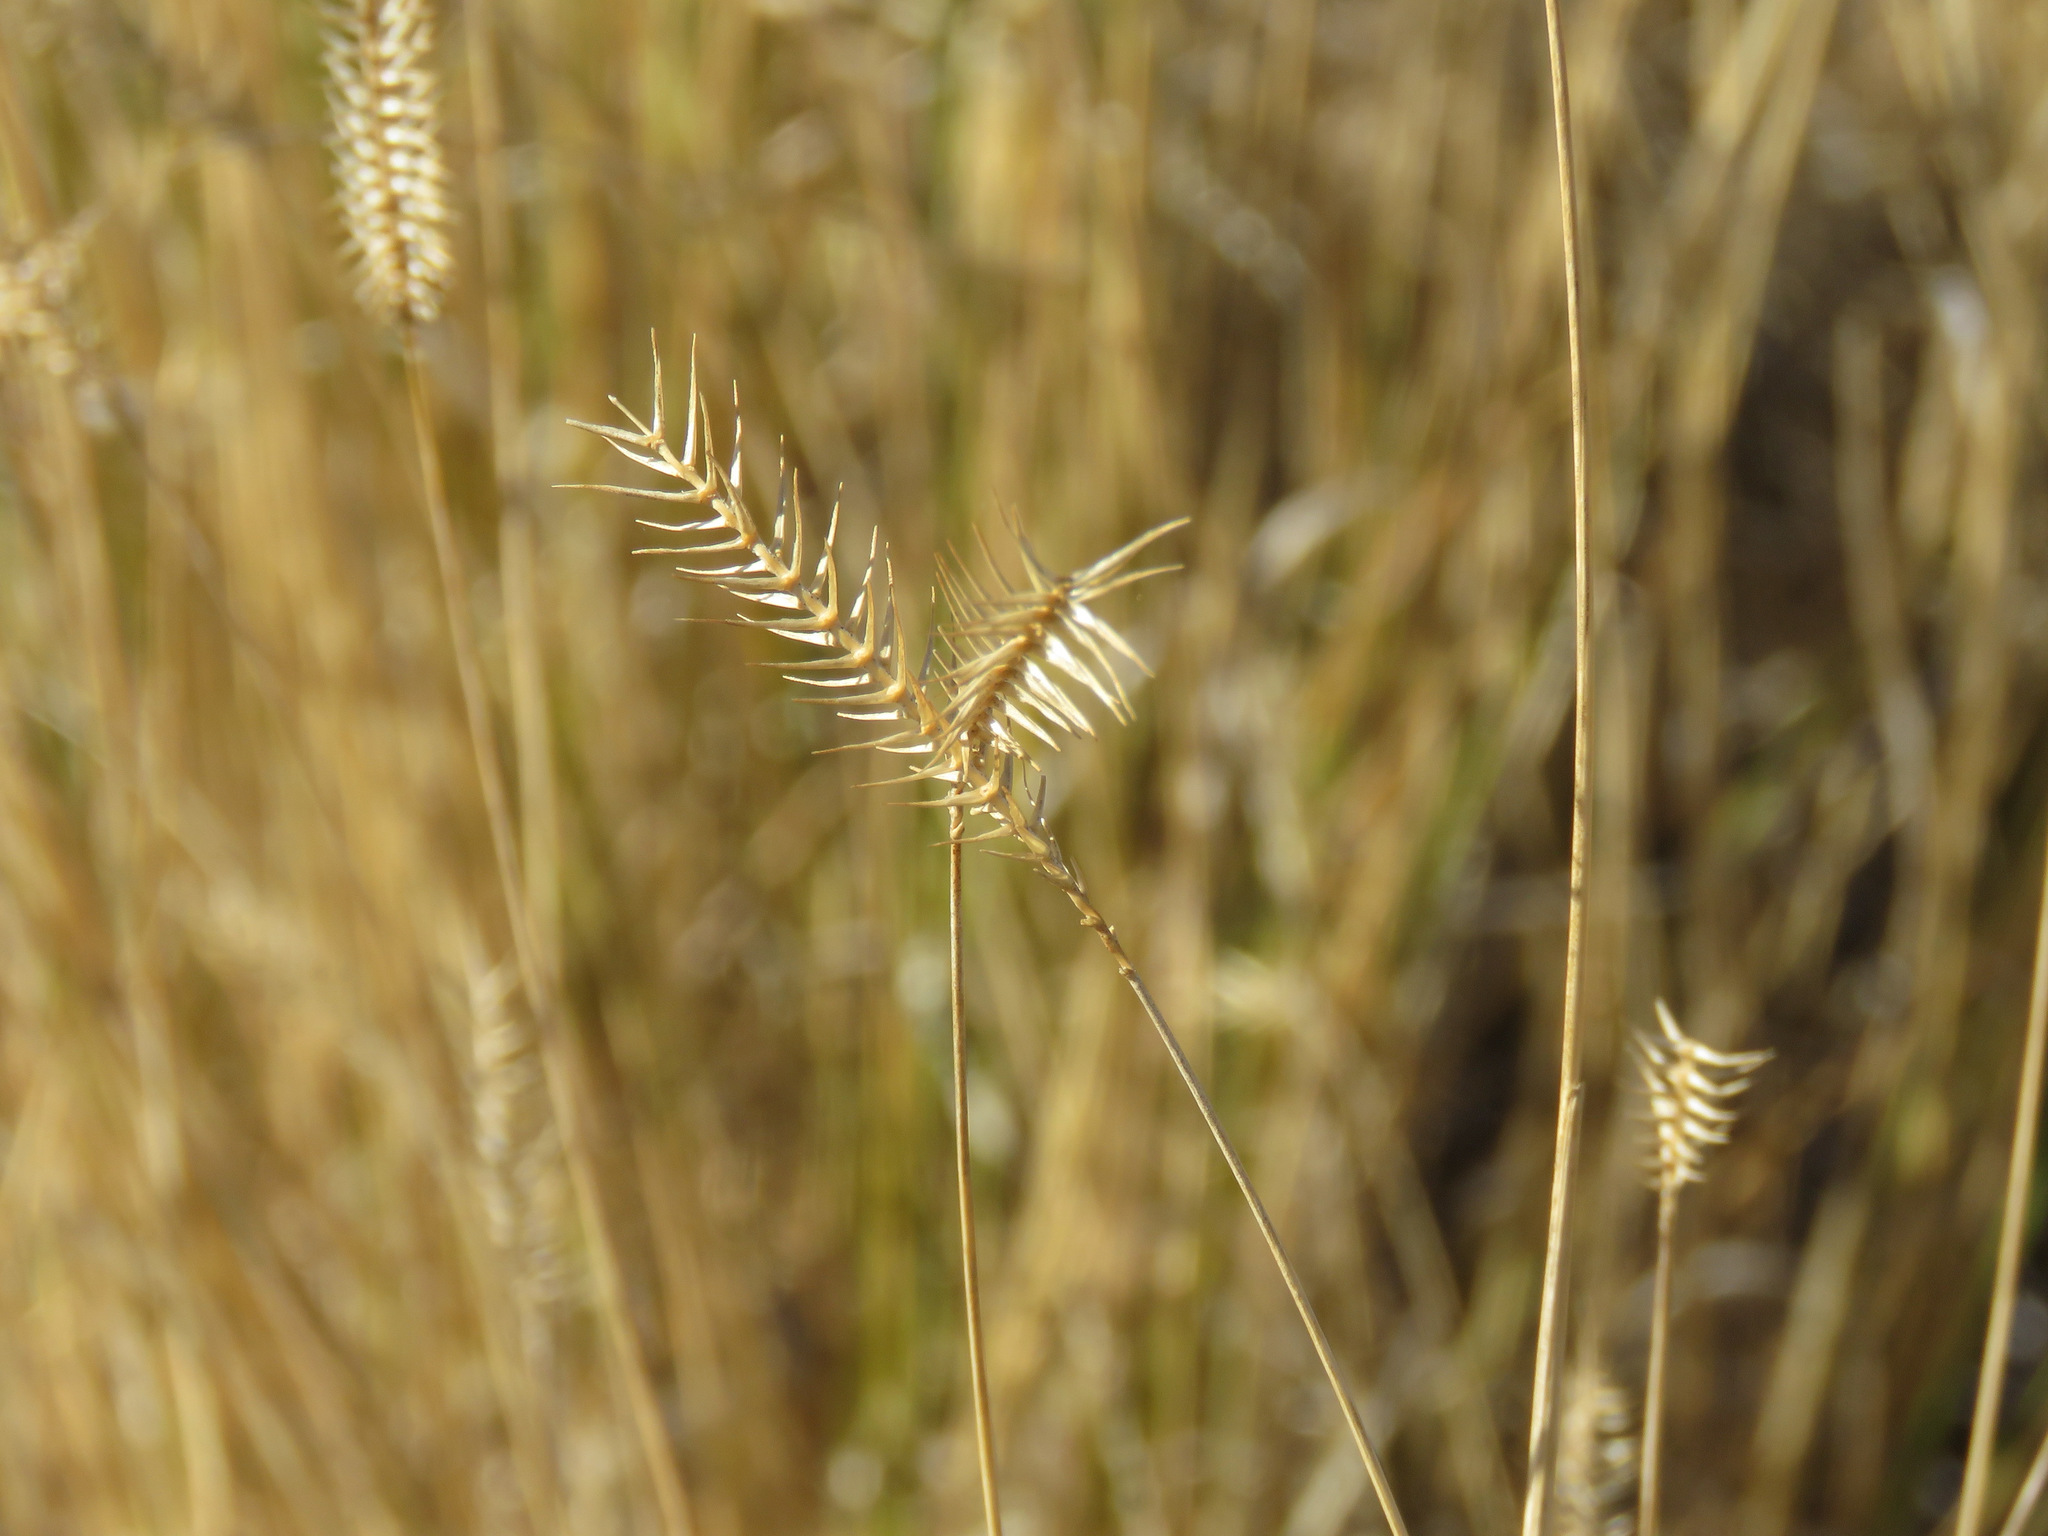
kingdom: Plantae
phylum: Tracheophyta
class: Liliopsida
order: Poales
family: Poaceae
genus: Agropyron
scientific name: Agropyron cristatum
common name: Crested wheatgrass
